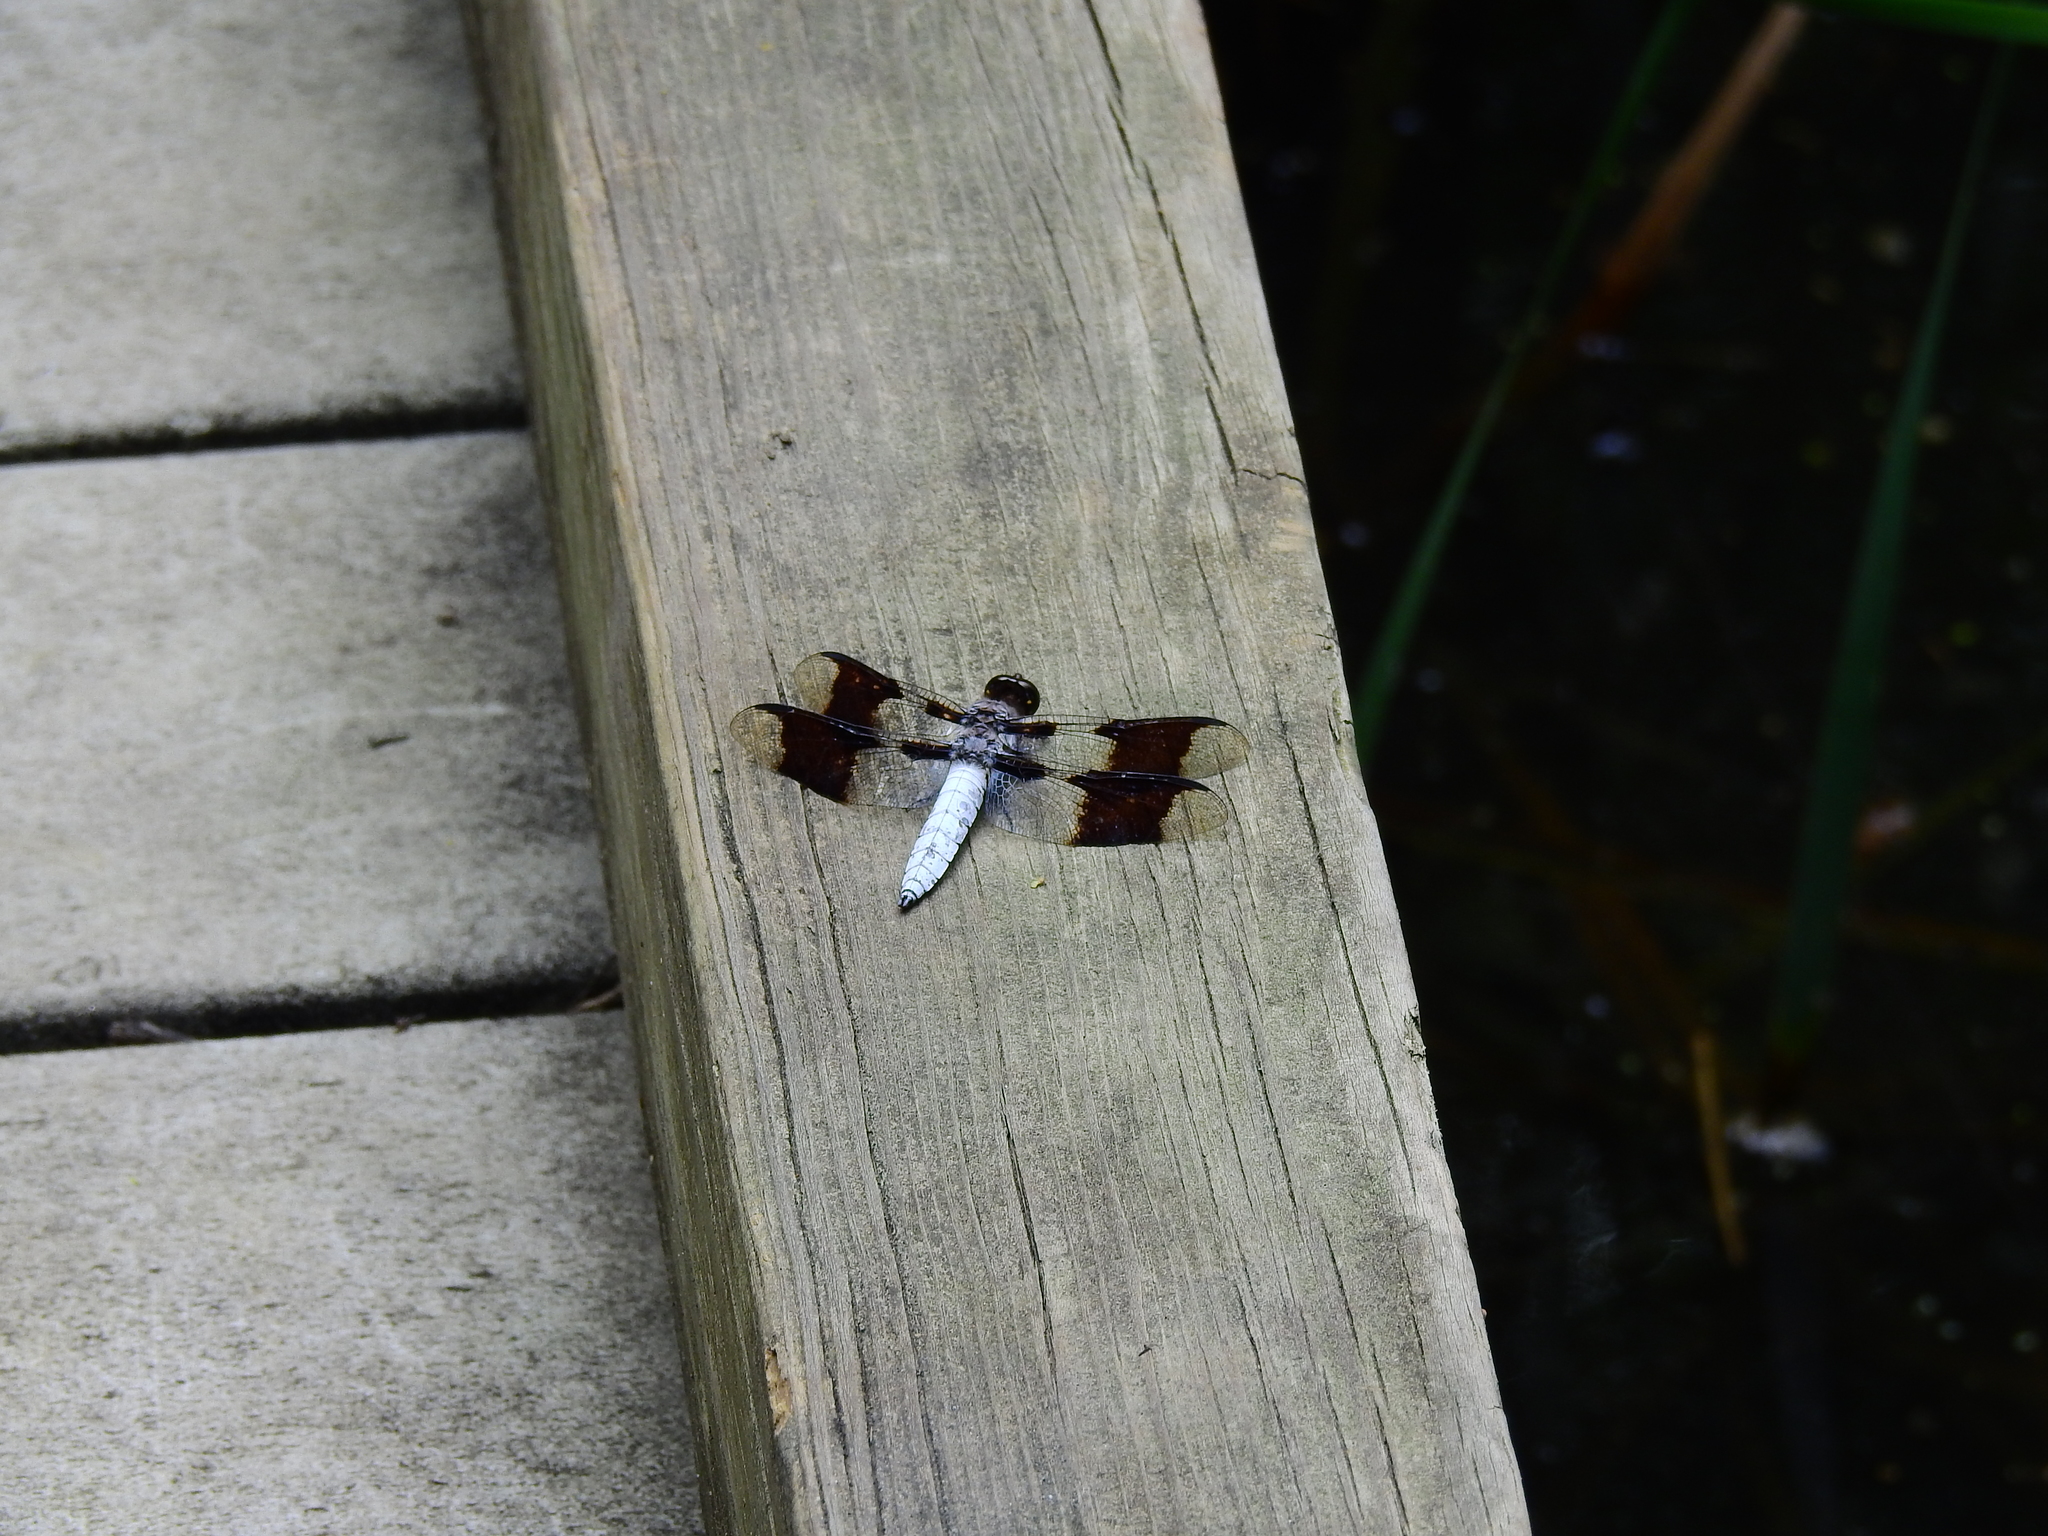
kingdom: Animalia
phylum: Arthropoda
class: Insecta
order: Odonata
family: Libellulidae
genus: Plathemis
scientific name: Plathemis lydia
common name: Common whitetail
